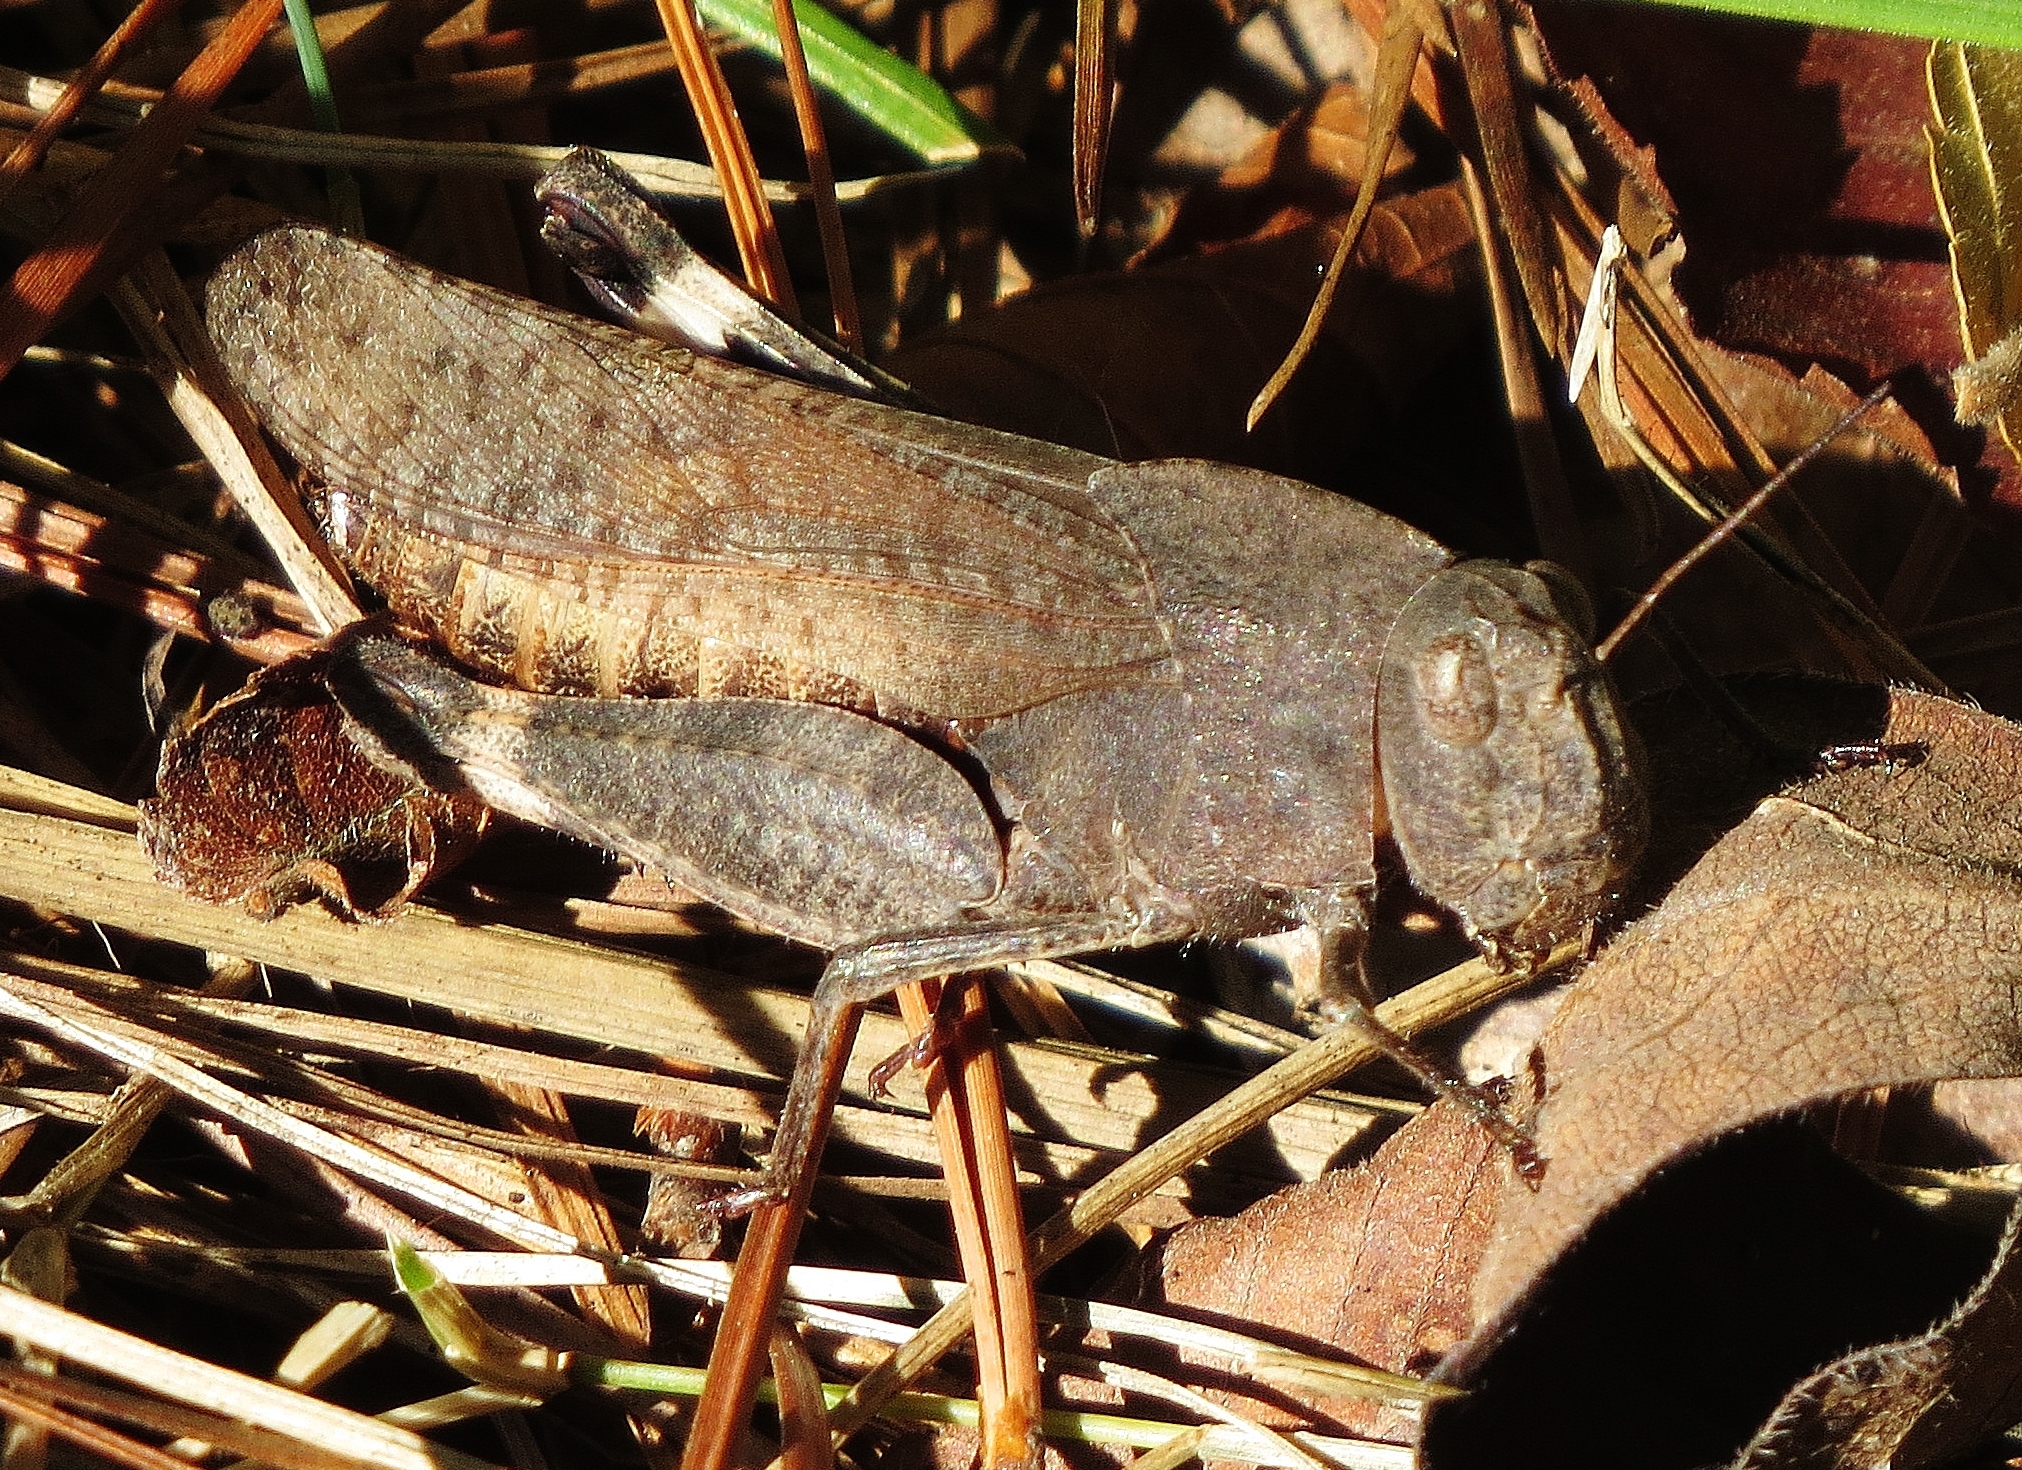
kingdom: Animalia
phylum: Arthropoda
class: Insecta
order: Orthoptera
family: Acrididae
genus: Arphia
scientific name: Arphia xanthoptera
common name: Autumn yellow-winged grasshopper
